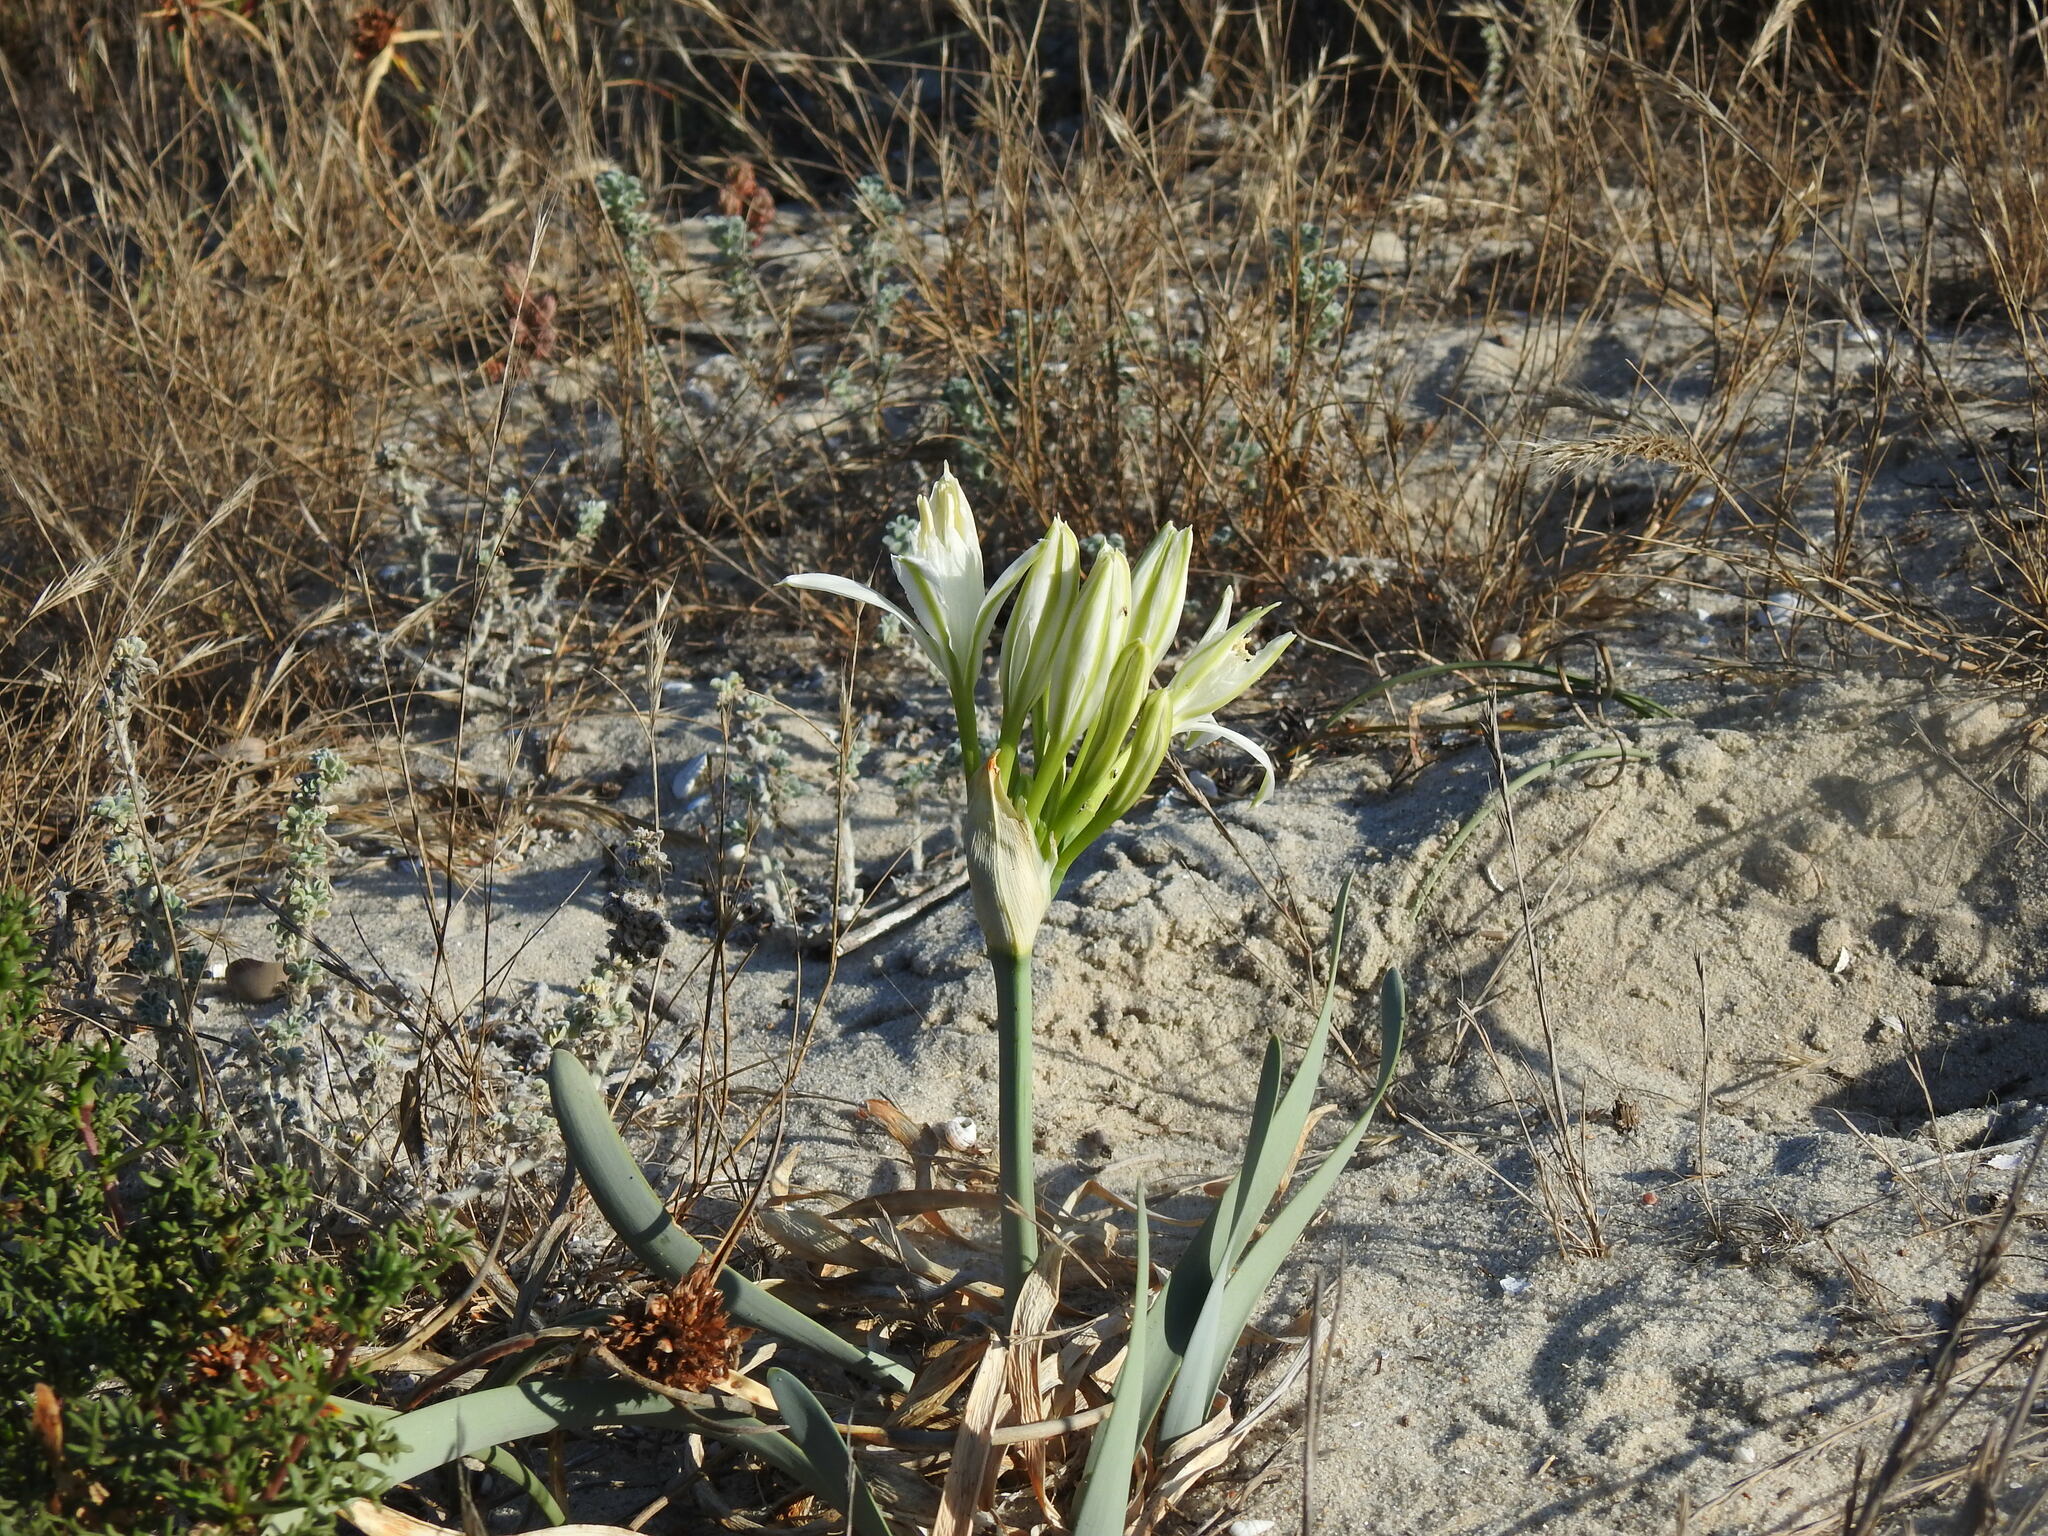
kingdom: Plantae
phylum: Tracheophyta
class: Liliopsida
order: Asparagales
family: Amaryllidaceae
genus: Pancratium
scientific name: Pancratium maritimum
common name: Sea-daffodil
